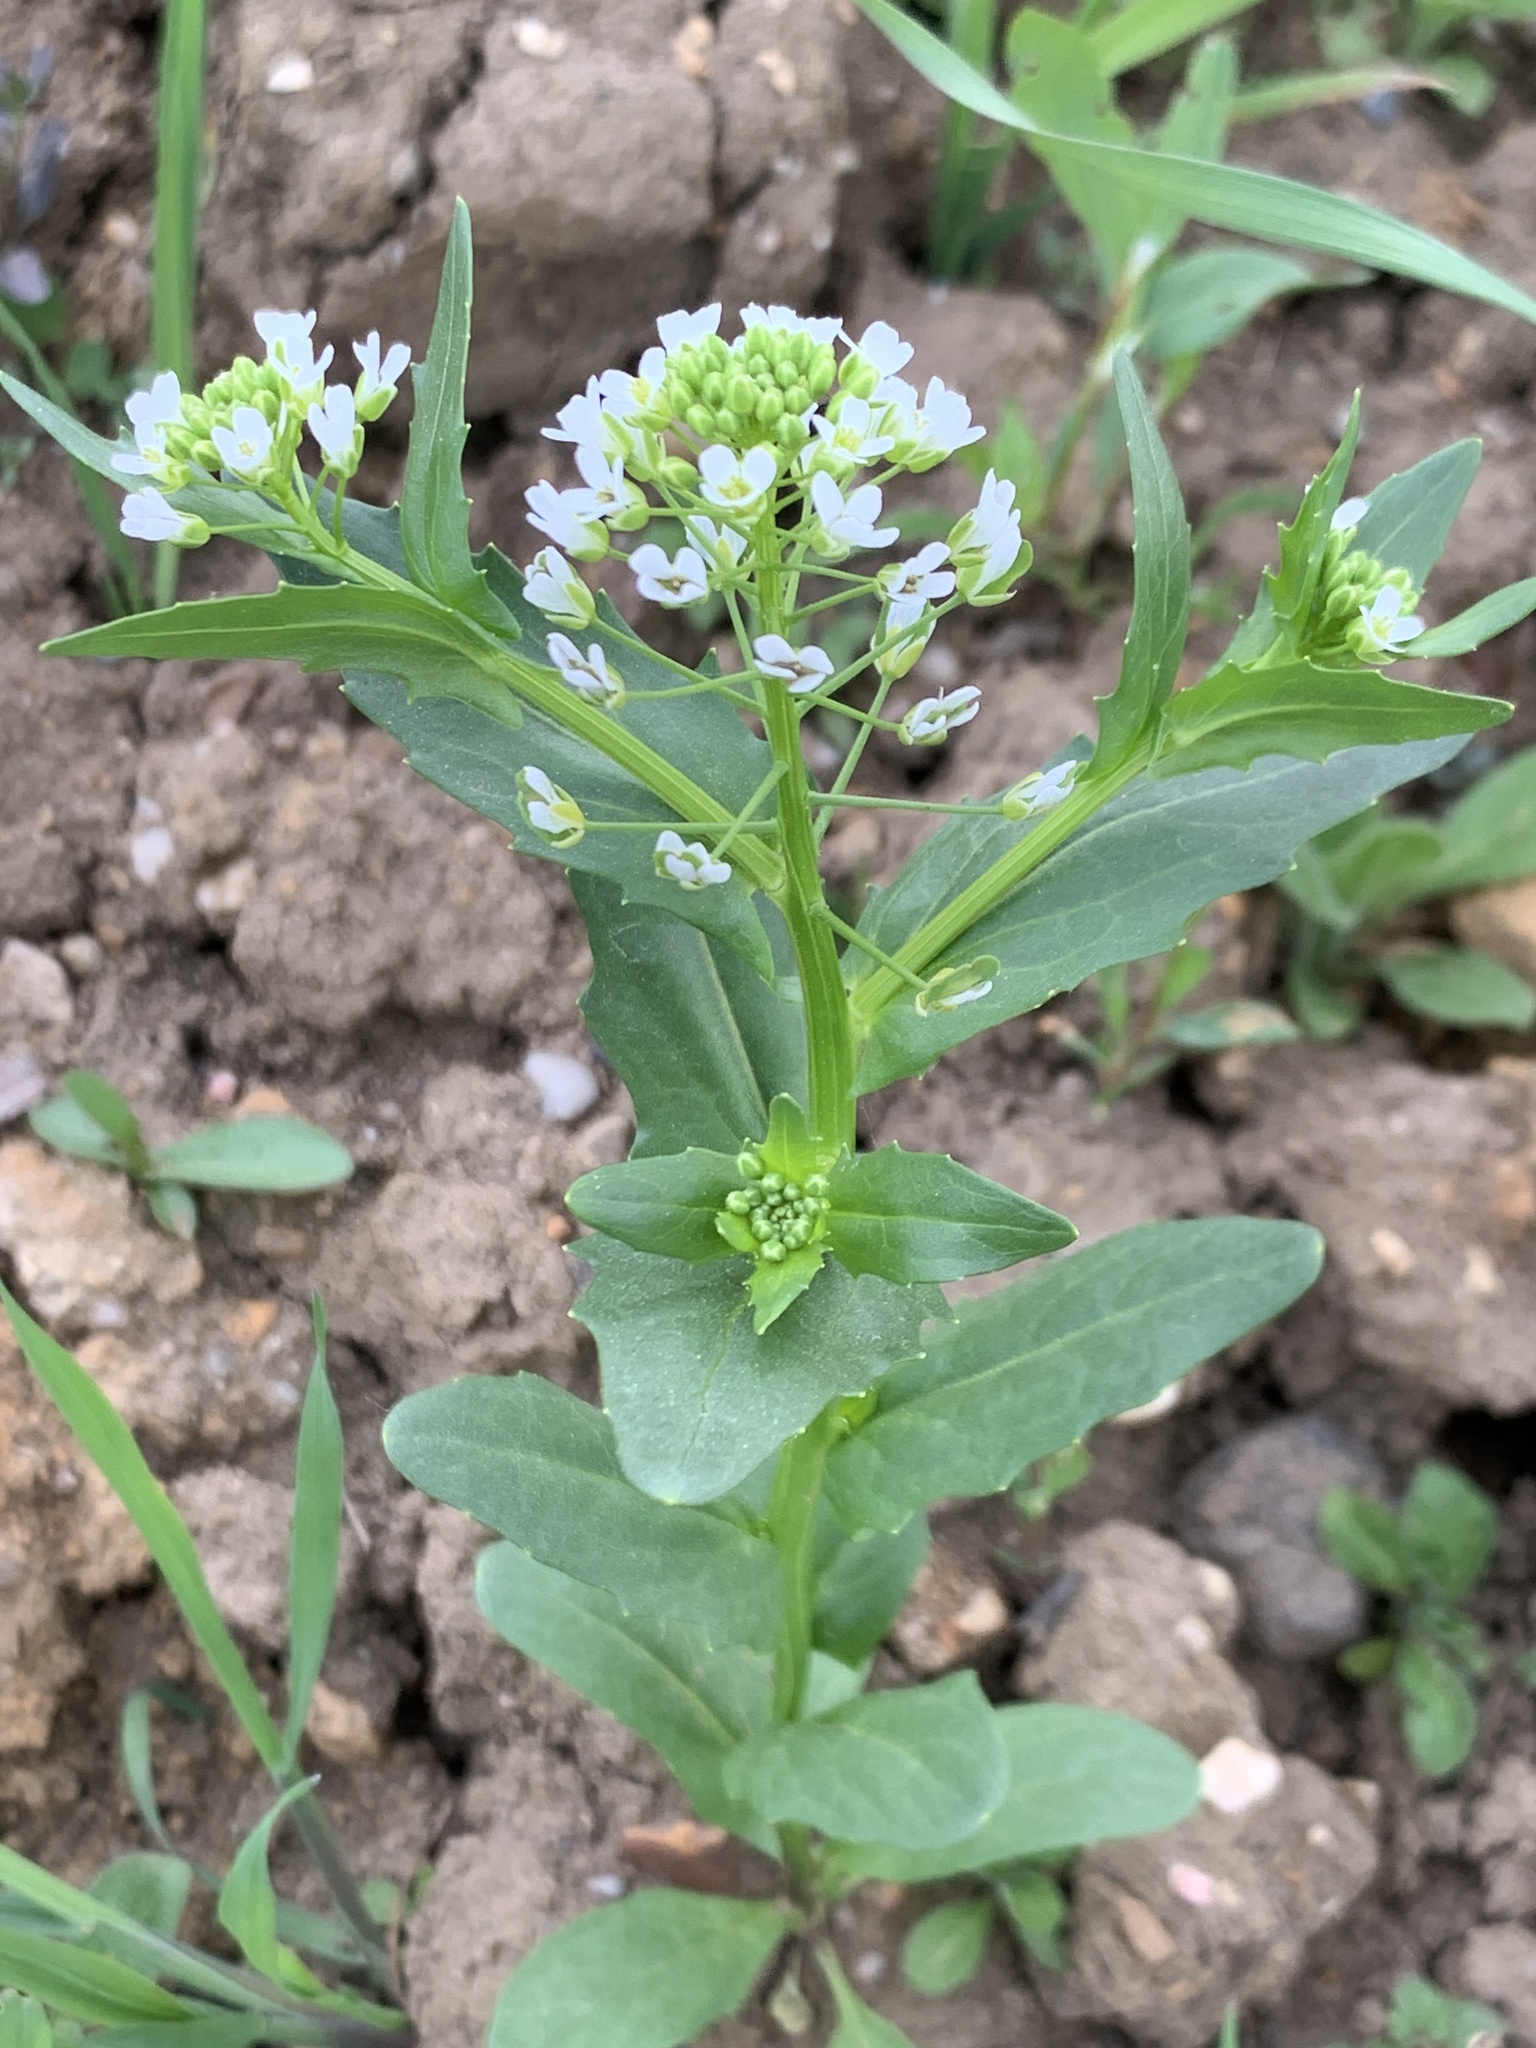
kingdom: Plantae
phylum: Tracheophyta
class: Magnoliopsida
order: Brassicales
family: Brassicaceae
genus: Thlaspi
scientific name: Thlaspi arvense
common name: Field pennycress
